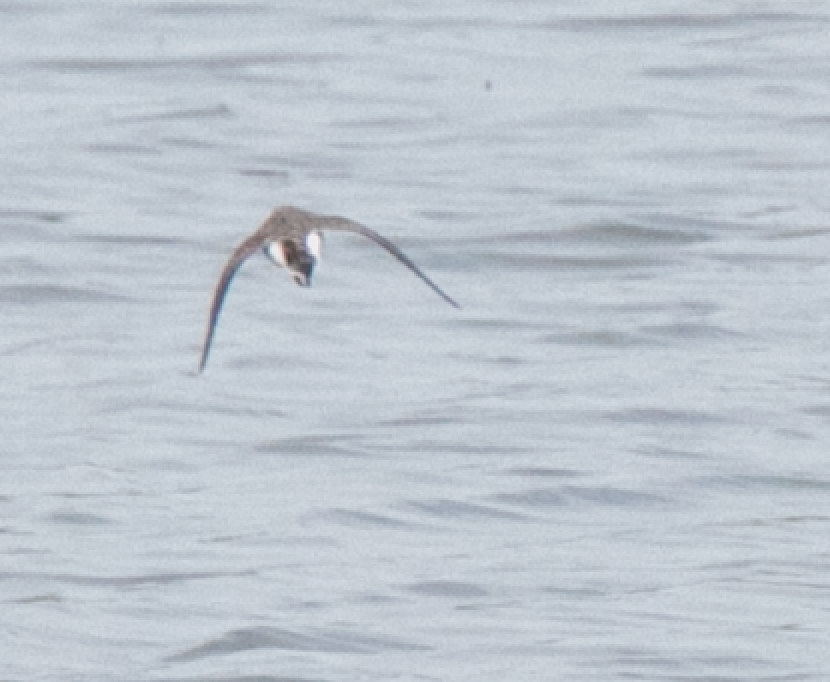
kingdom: Animalia
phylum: Chordata
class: Aves
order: Charadriiformes
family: Scolopacidae
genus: Calidris
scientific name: Calidris temminckii
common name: Temminck's stint
